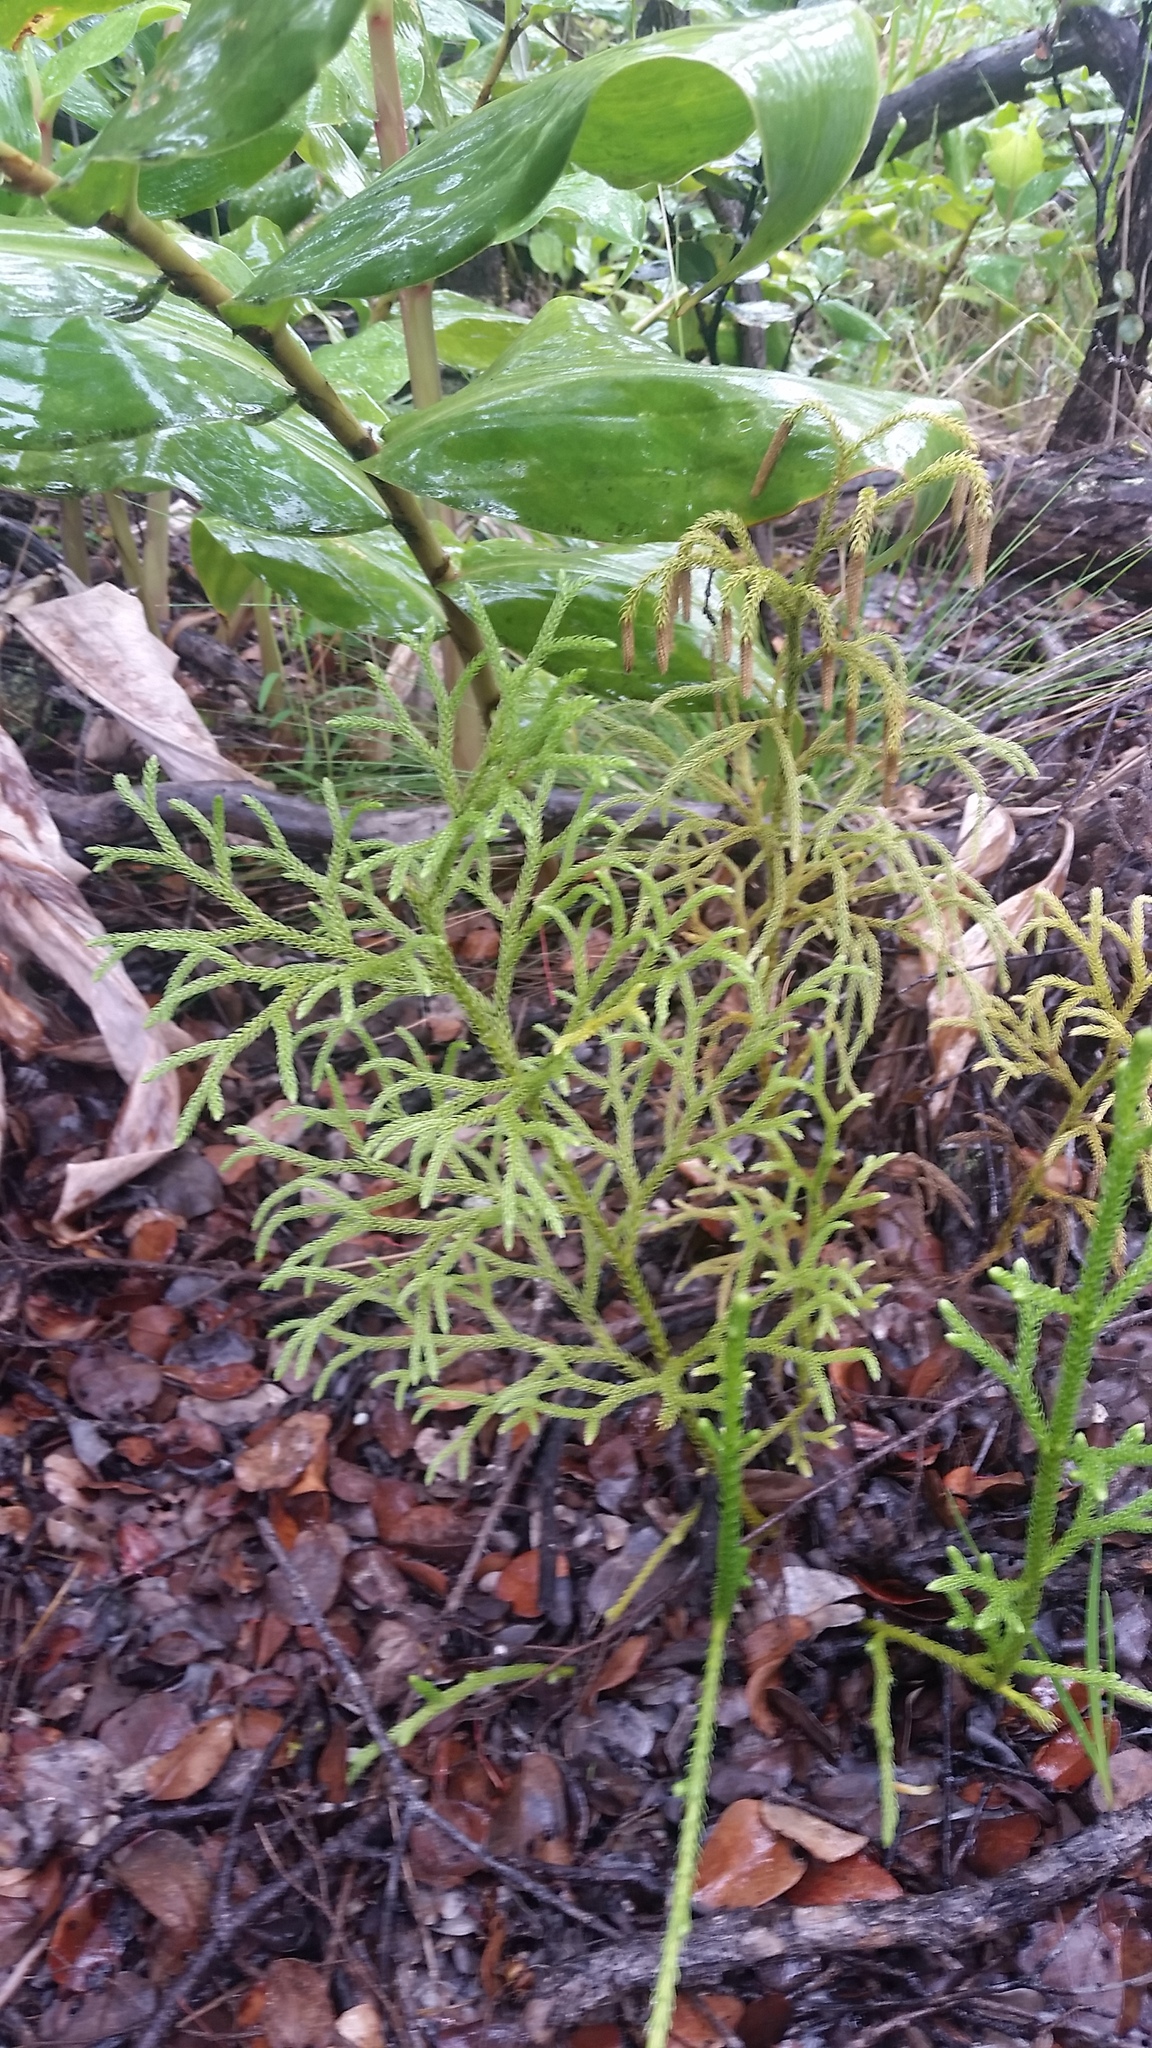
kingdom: Plantae
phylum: Tracheophyta
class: Lycopodiopsida
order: Lycopodiales
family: Lycopodiaceae
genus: Palhinhaea
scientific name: Palhinhaea cernua
